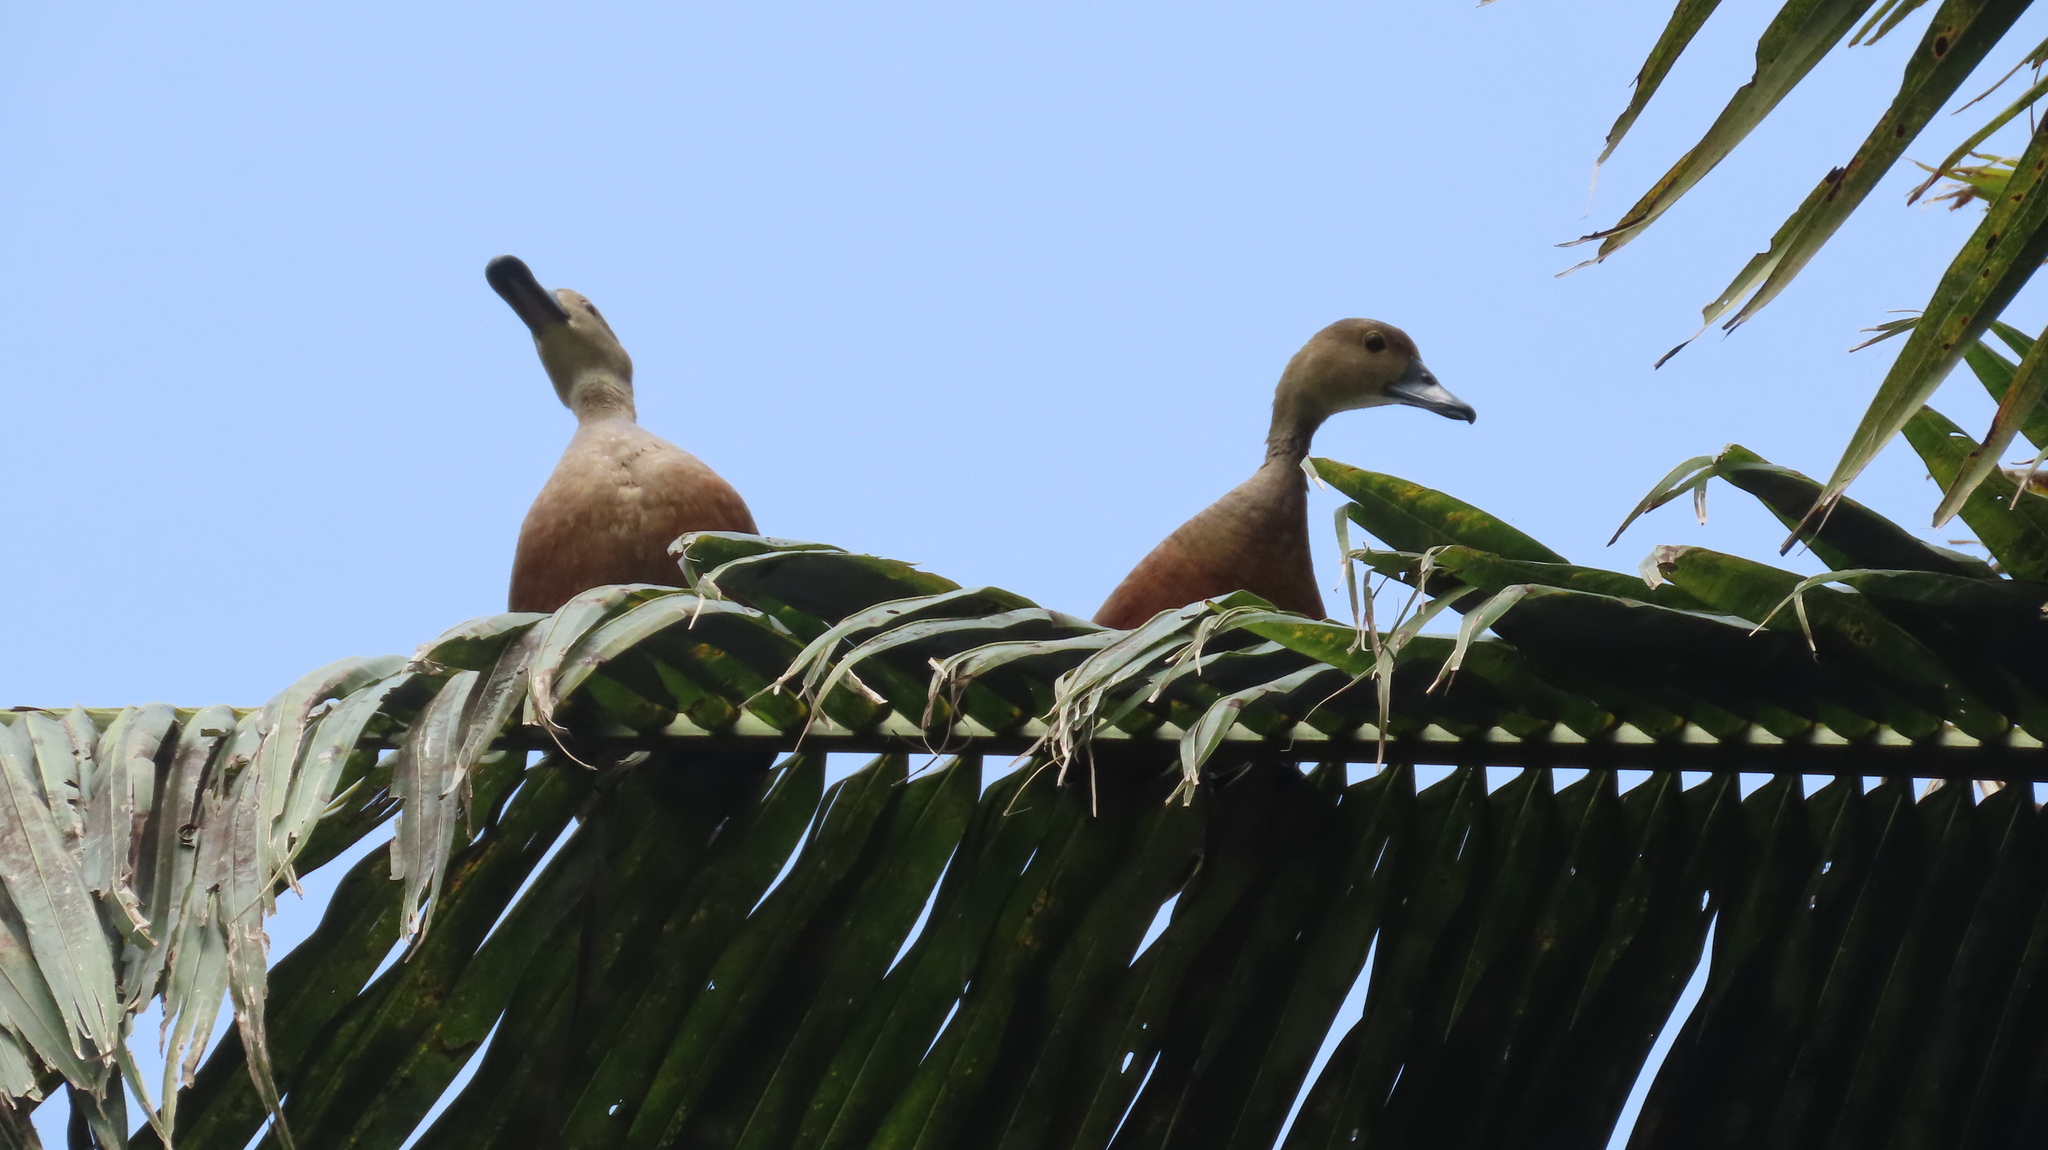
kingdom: Animalia
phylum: Chordata
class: Aves
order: Anseriformes
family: Anatidae
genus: Dendrocygna
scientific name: Dendrocygna javanica
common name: Lesser whistling-duck
